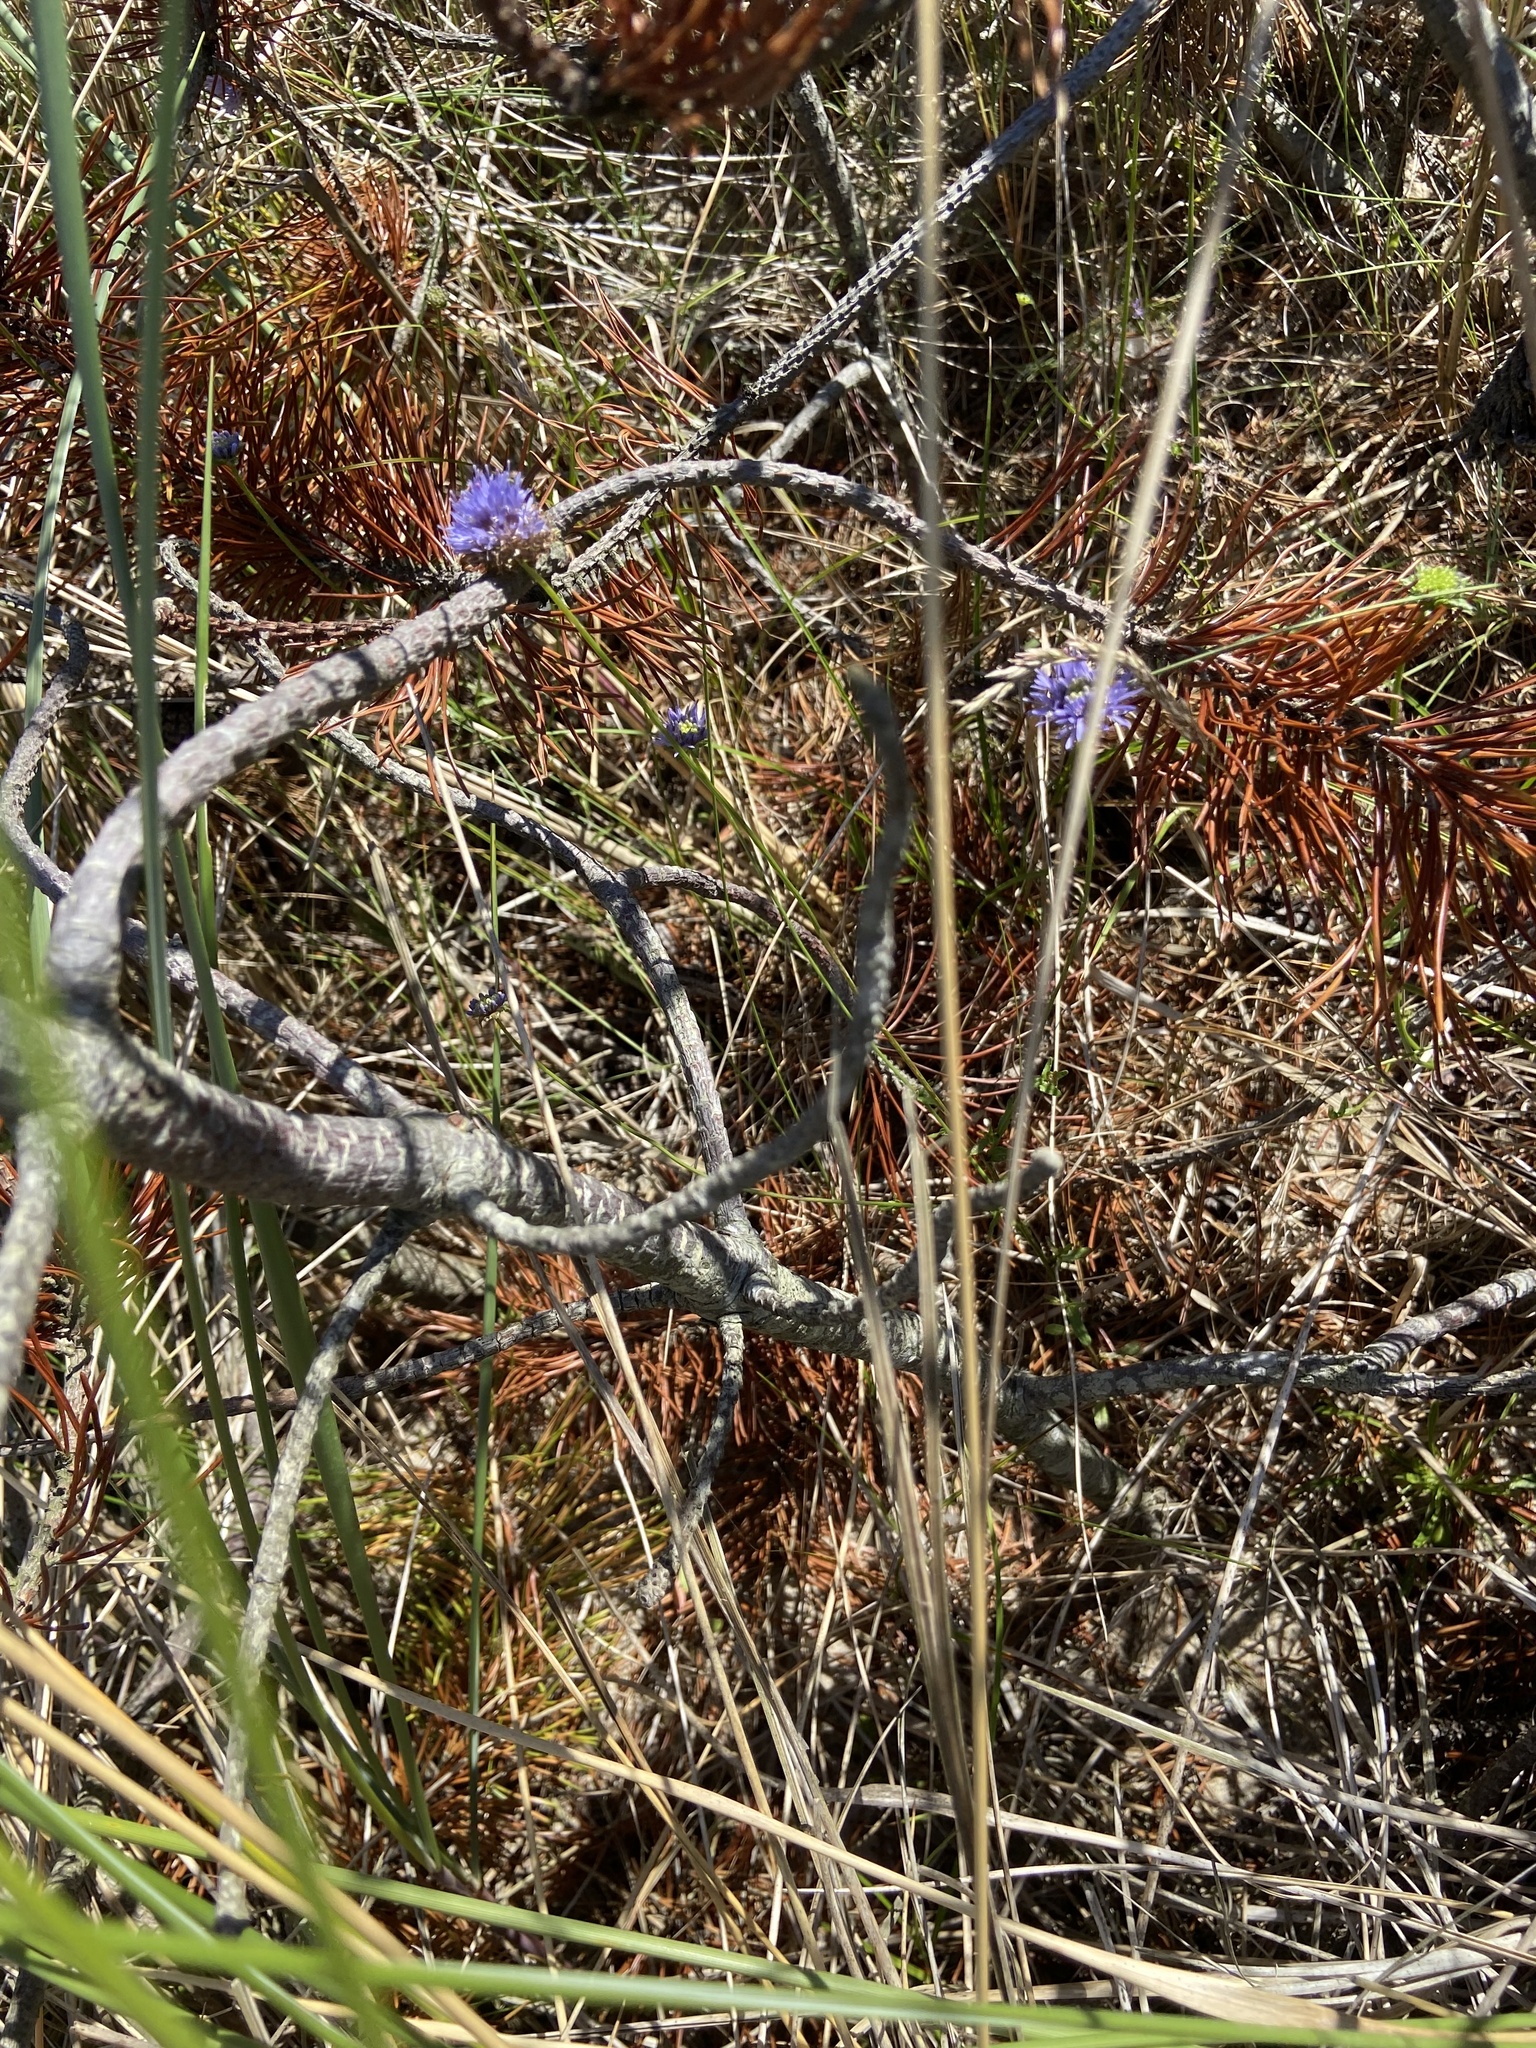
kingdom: Plantae
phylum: Tracheophyta
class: Magnoliopsida
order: Asterales
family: Campanulaceae
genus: Jasione
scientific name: Jasione montana
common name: Sheep's-bit
